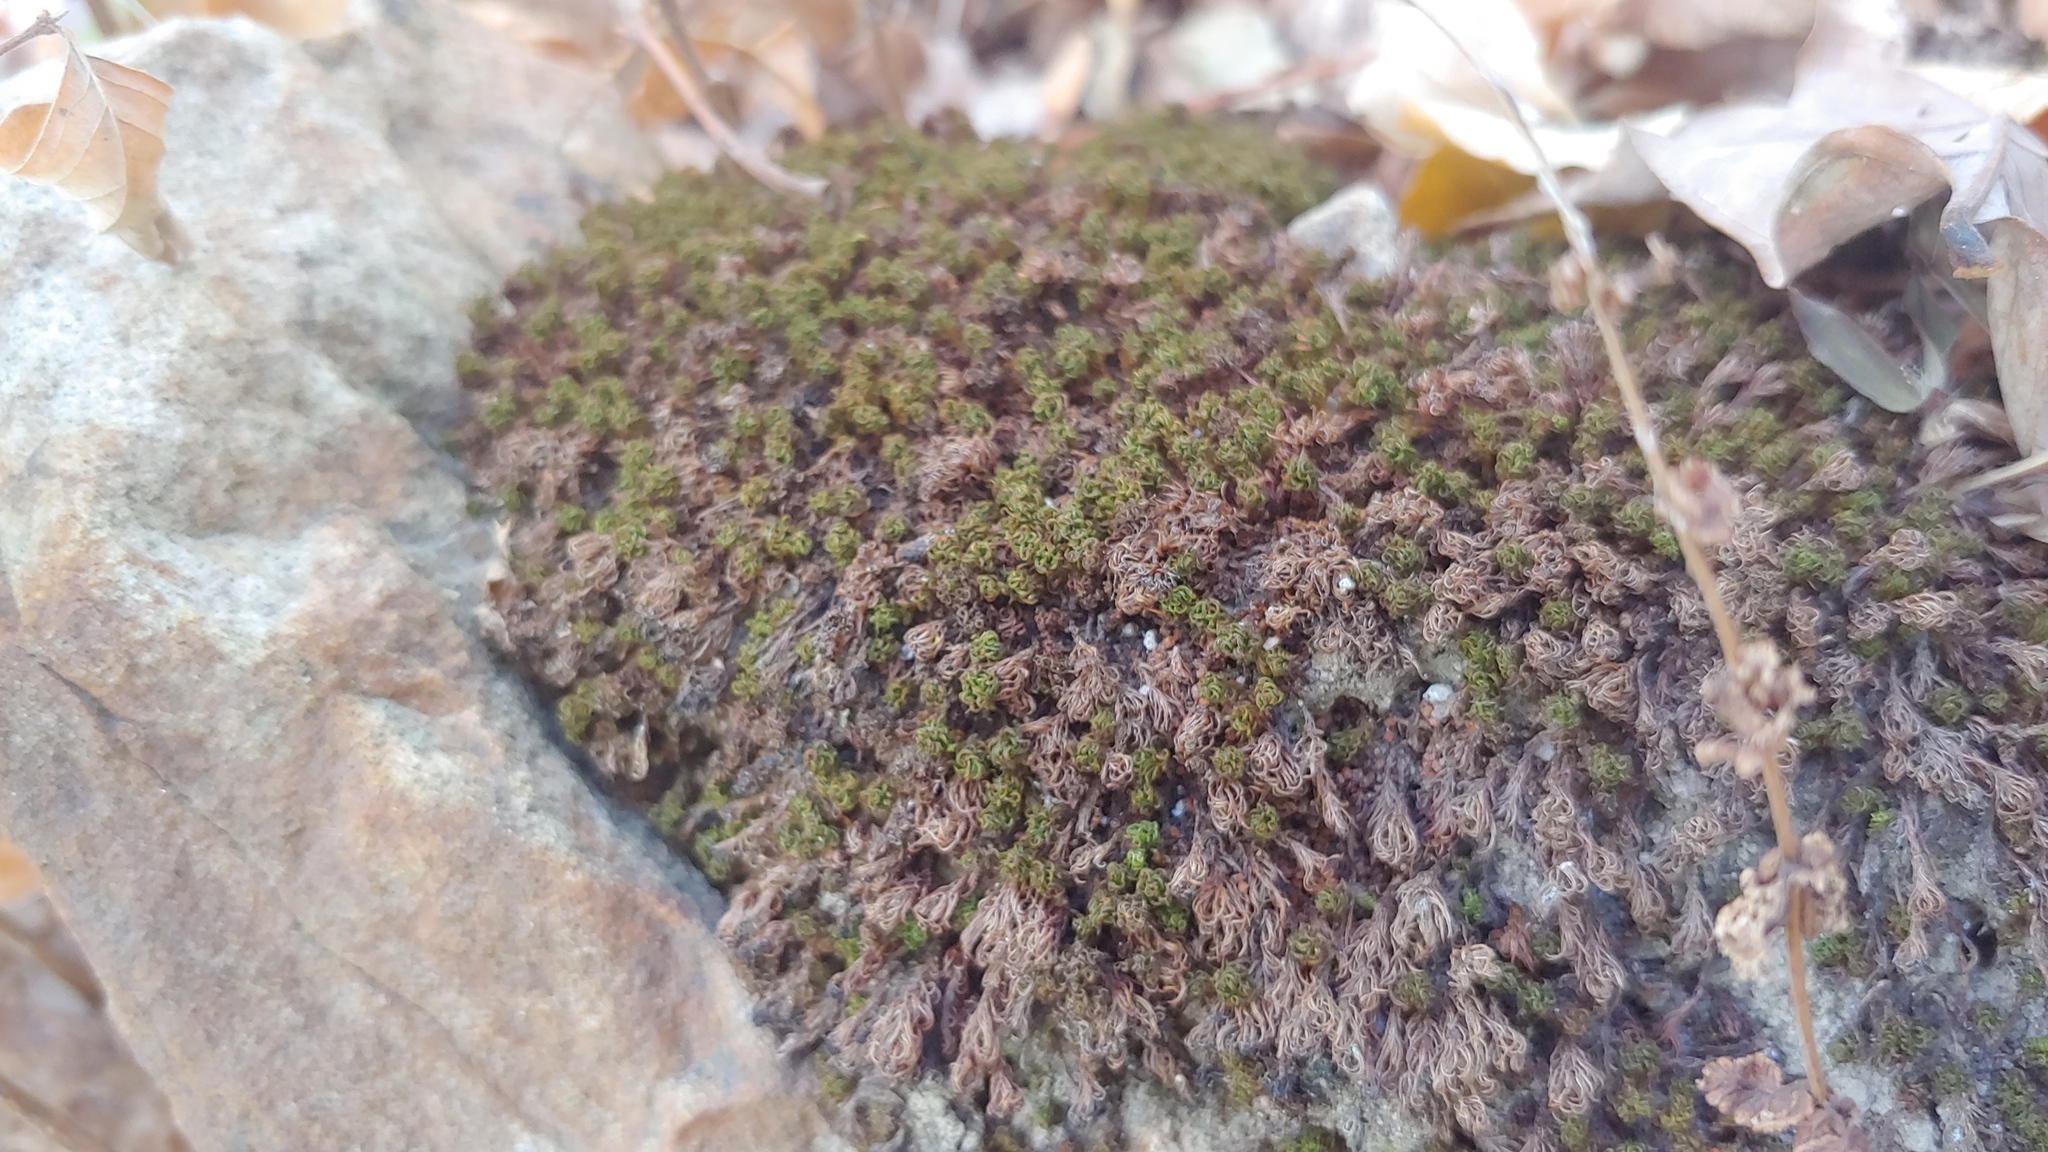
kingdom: Plantae
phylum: Bryophyta
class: Polytrichopsida
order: Polytrichales
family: Polytrichaceae
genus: Atrichum
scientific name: Atrichum angustatum
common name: Lesser smoothcap
